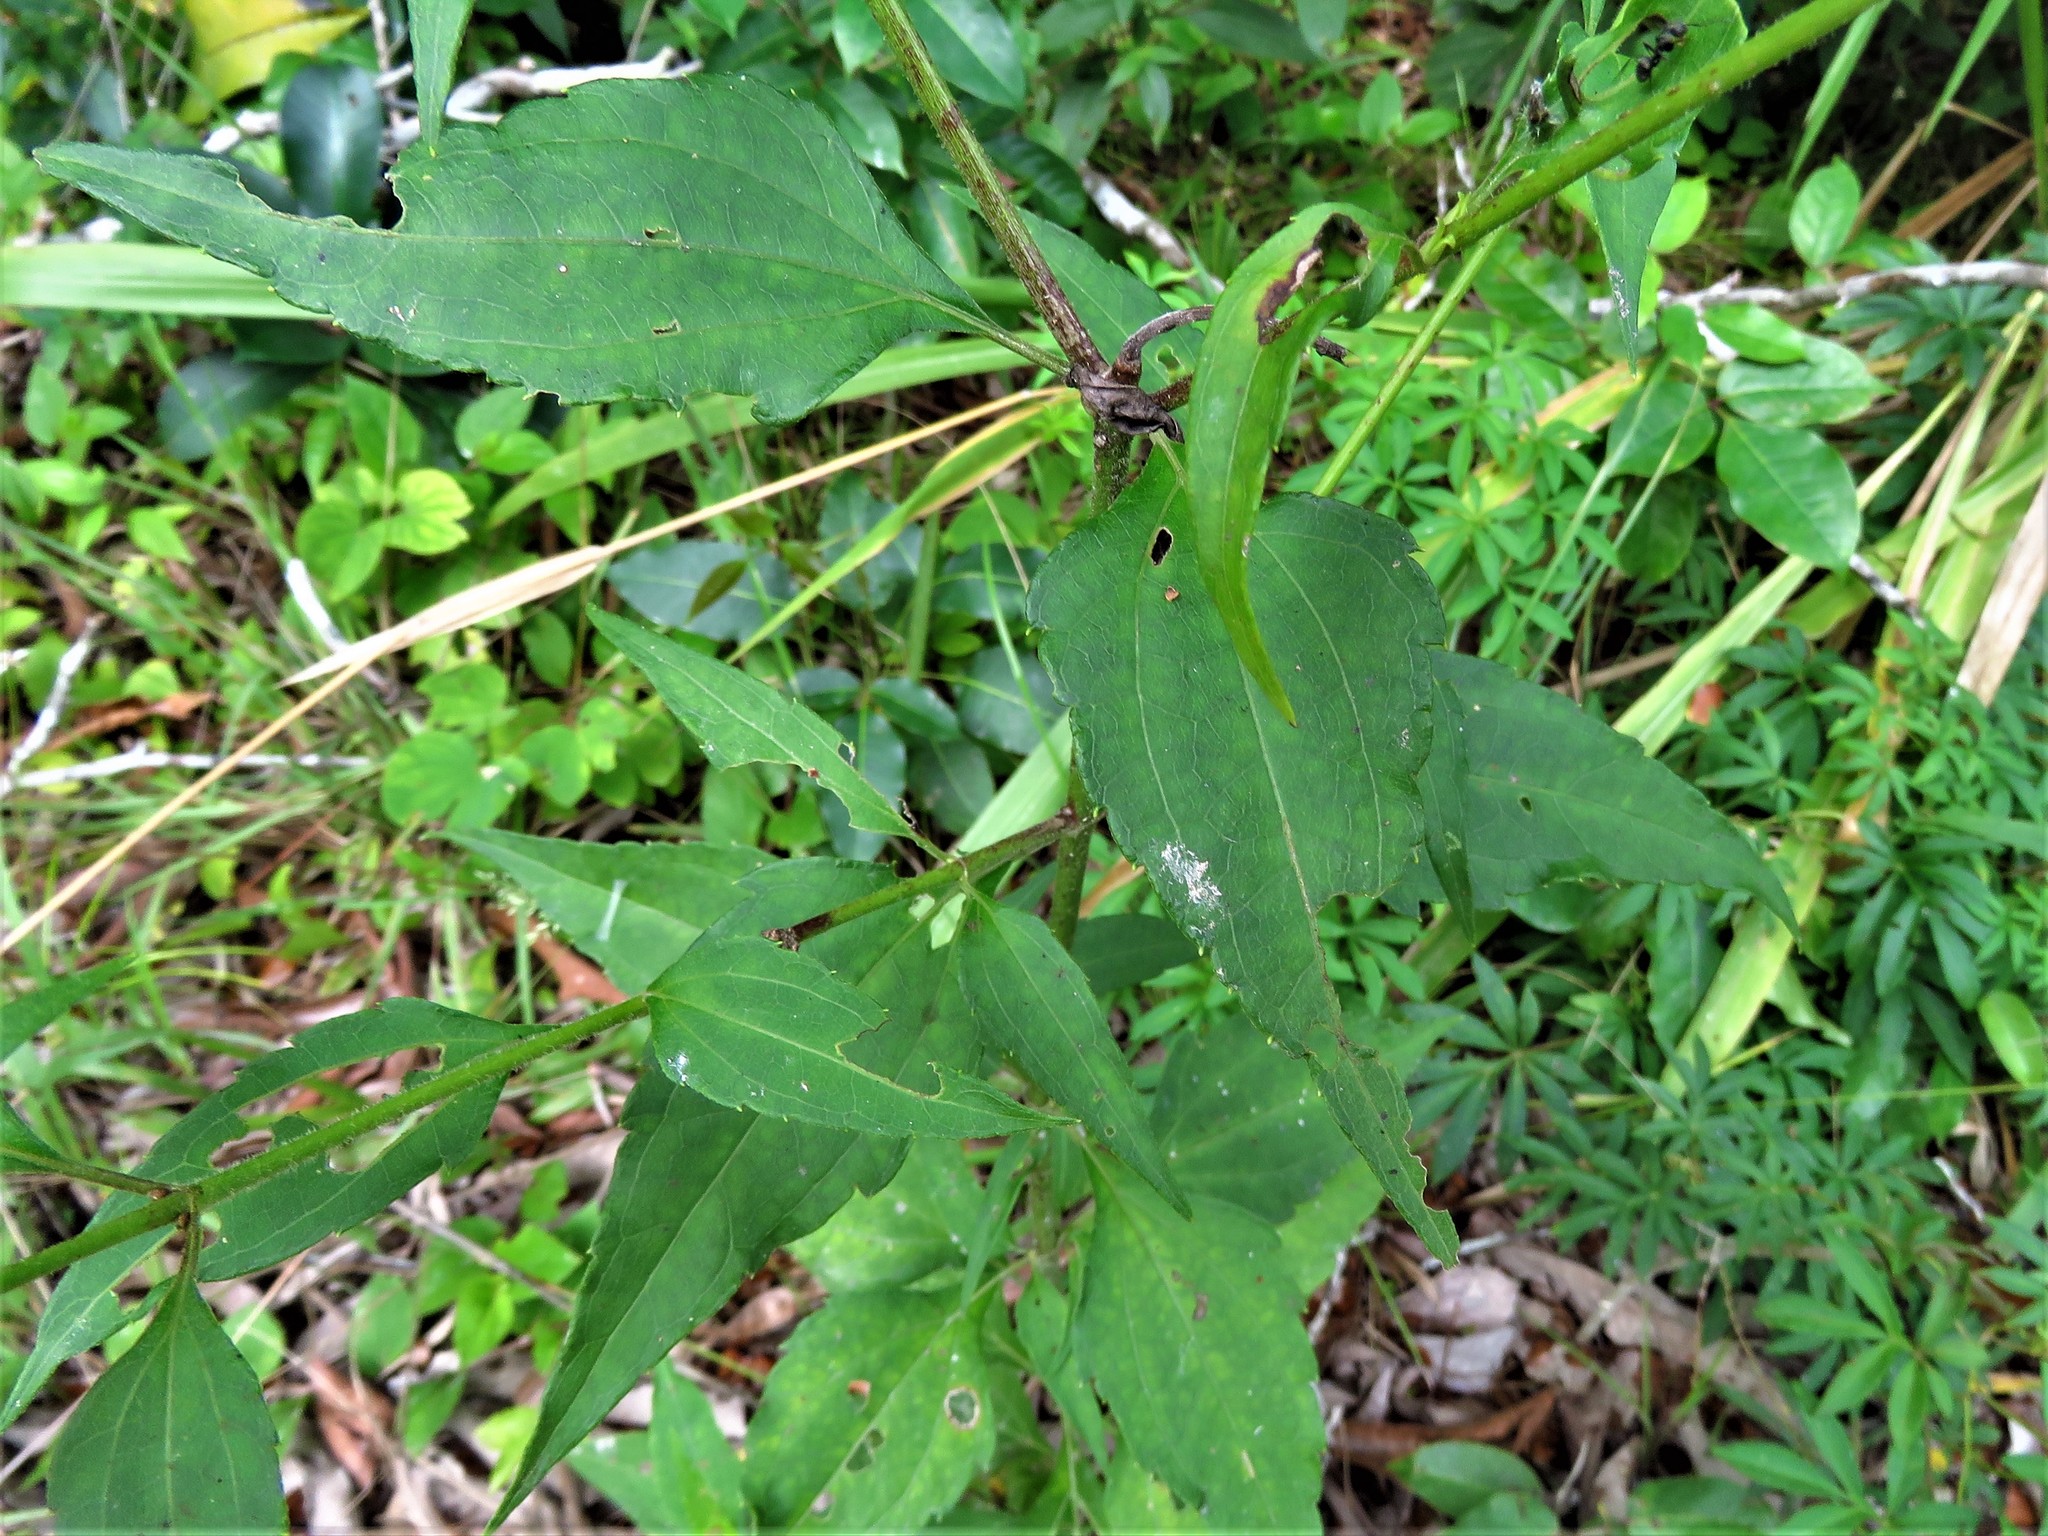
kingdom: Plantae
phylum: Tracheophyta
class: Magnoliopsida
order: Asterales
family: Asteraceae
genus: Chromolaena
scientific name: Chromolaena odorata
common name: Siamweed
